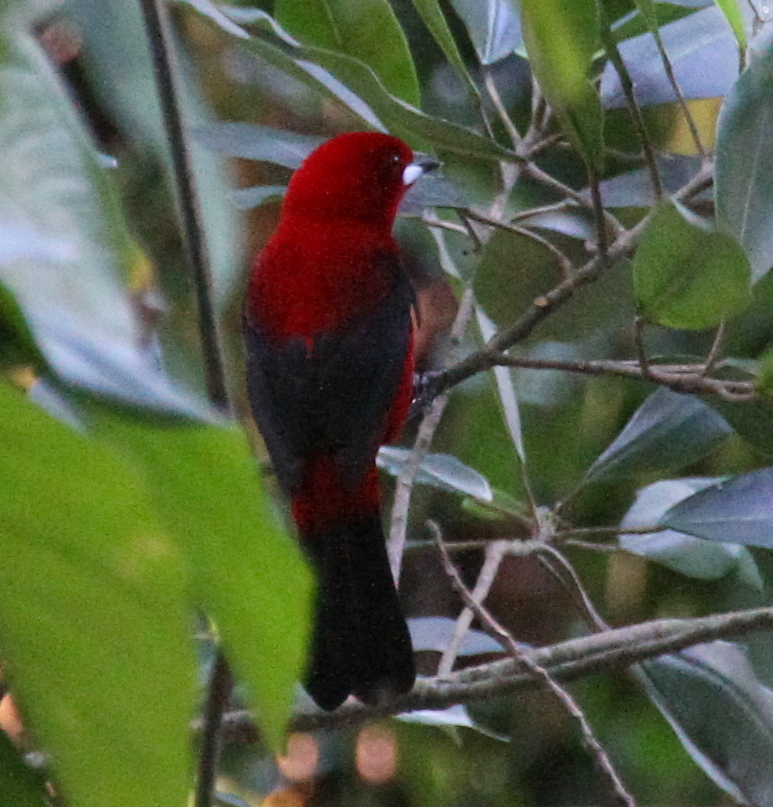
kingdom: Animalia
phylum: Chordata
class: Aves
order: Passeriformes
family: Thraupidae
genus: Ramphocelus
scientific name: Ramphocelus bresilia
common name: Brazilian tanager
